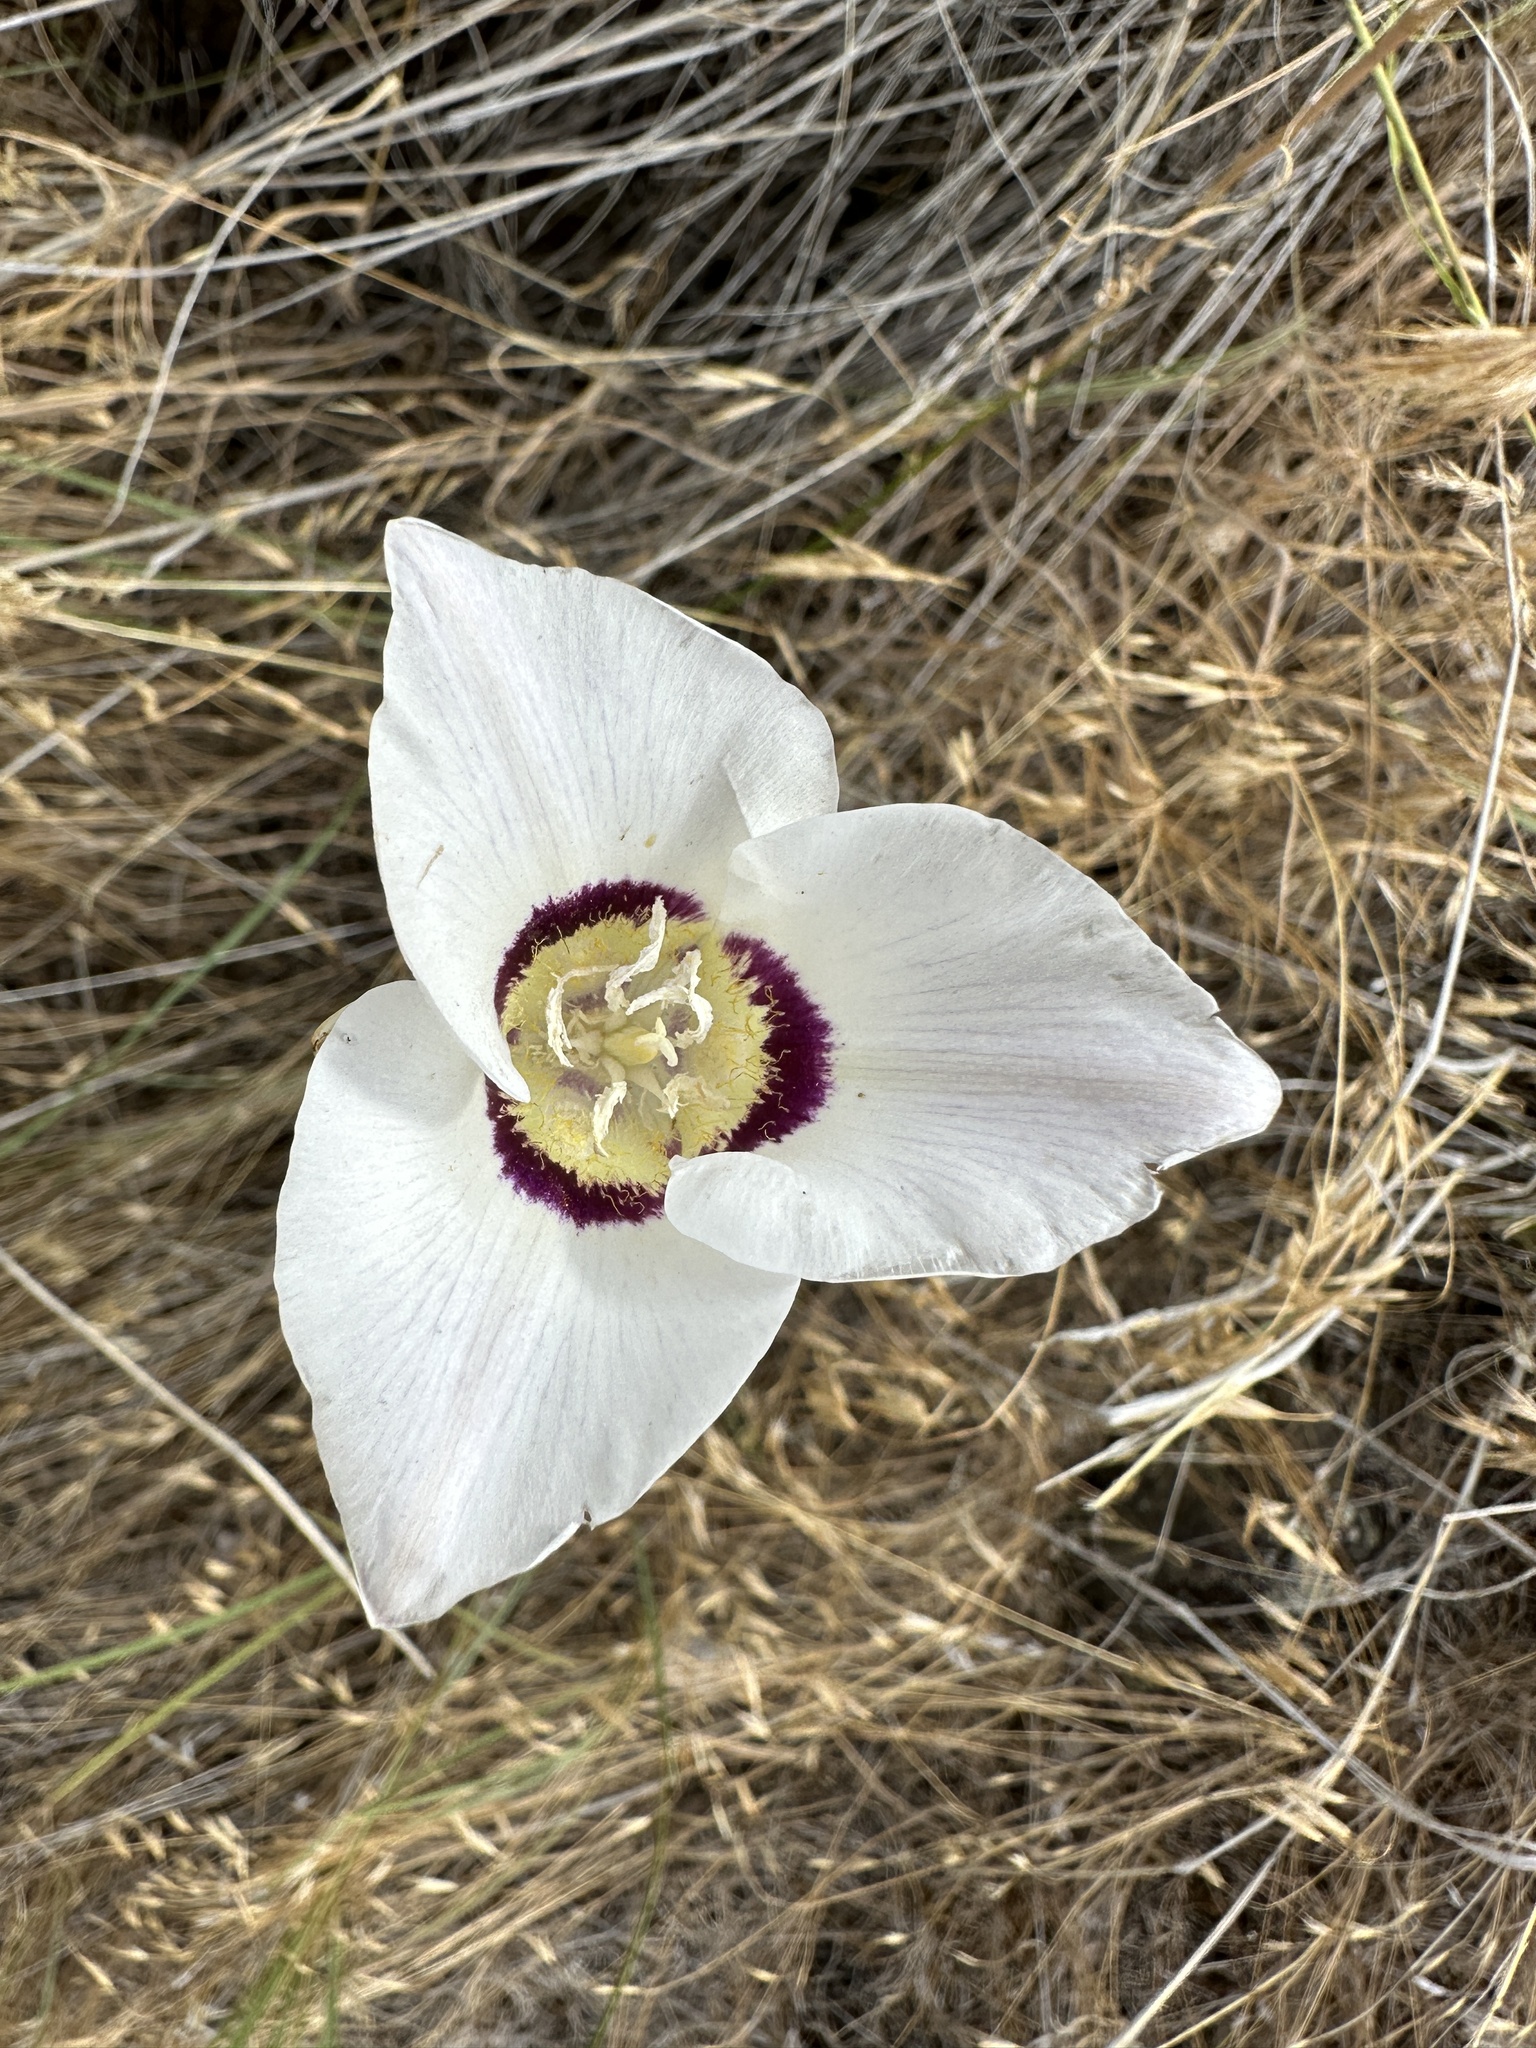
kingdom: Plantae
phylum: Tracheophyta
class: Liliopsida
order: Liliales
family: Liliaceae
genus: Calochortus
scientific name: Calochortus macrocarpus
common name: Green-band mariposa lily
